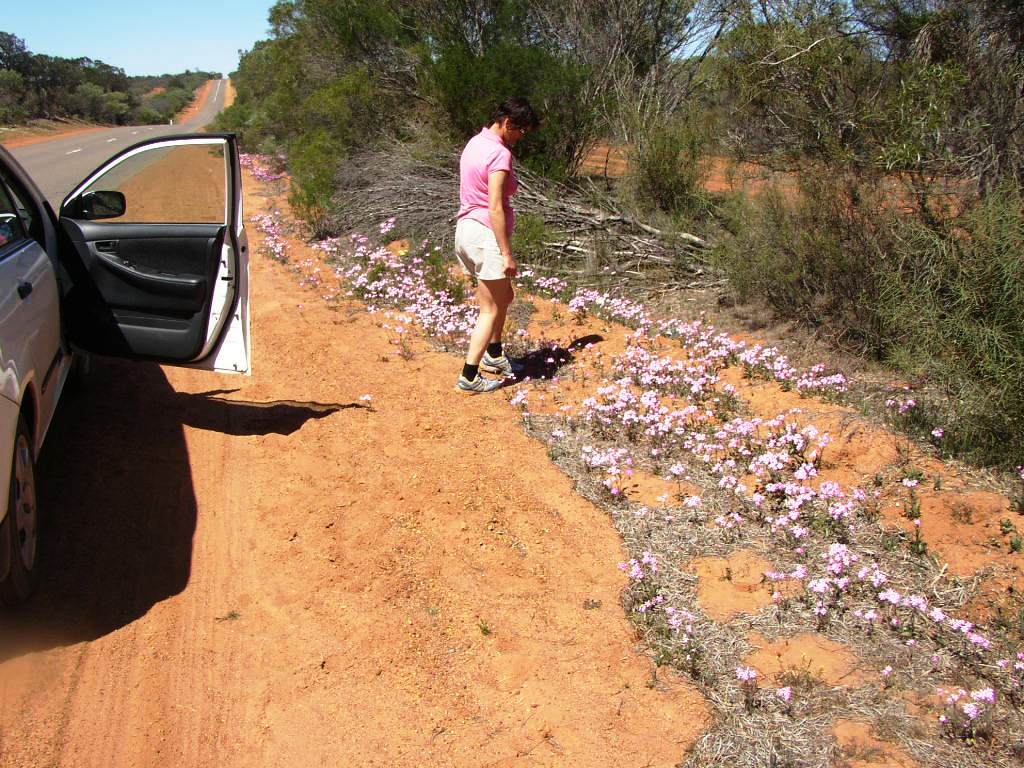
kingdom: Plantae
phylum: Tracheophyta
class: Magnoliopsida
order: Asterales
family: Asteraceae
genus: Schoenia
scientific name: Schoenia cassiniana
